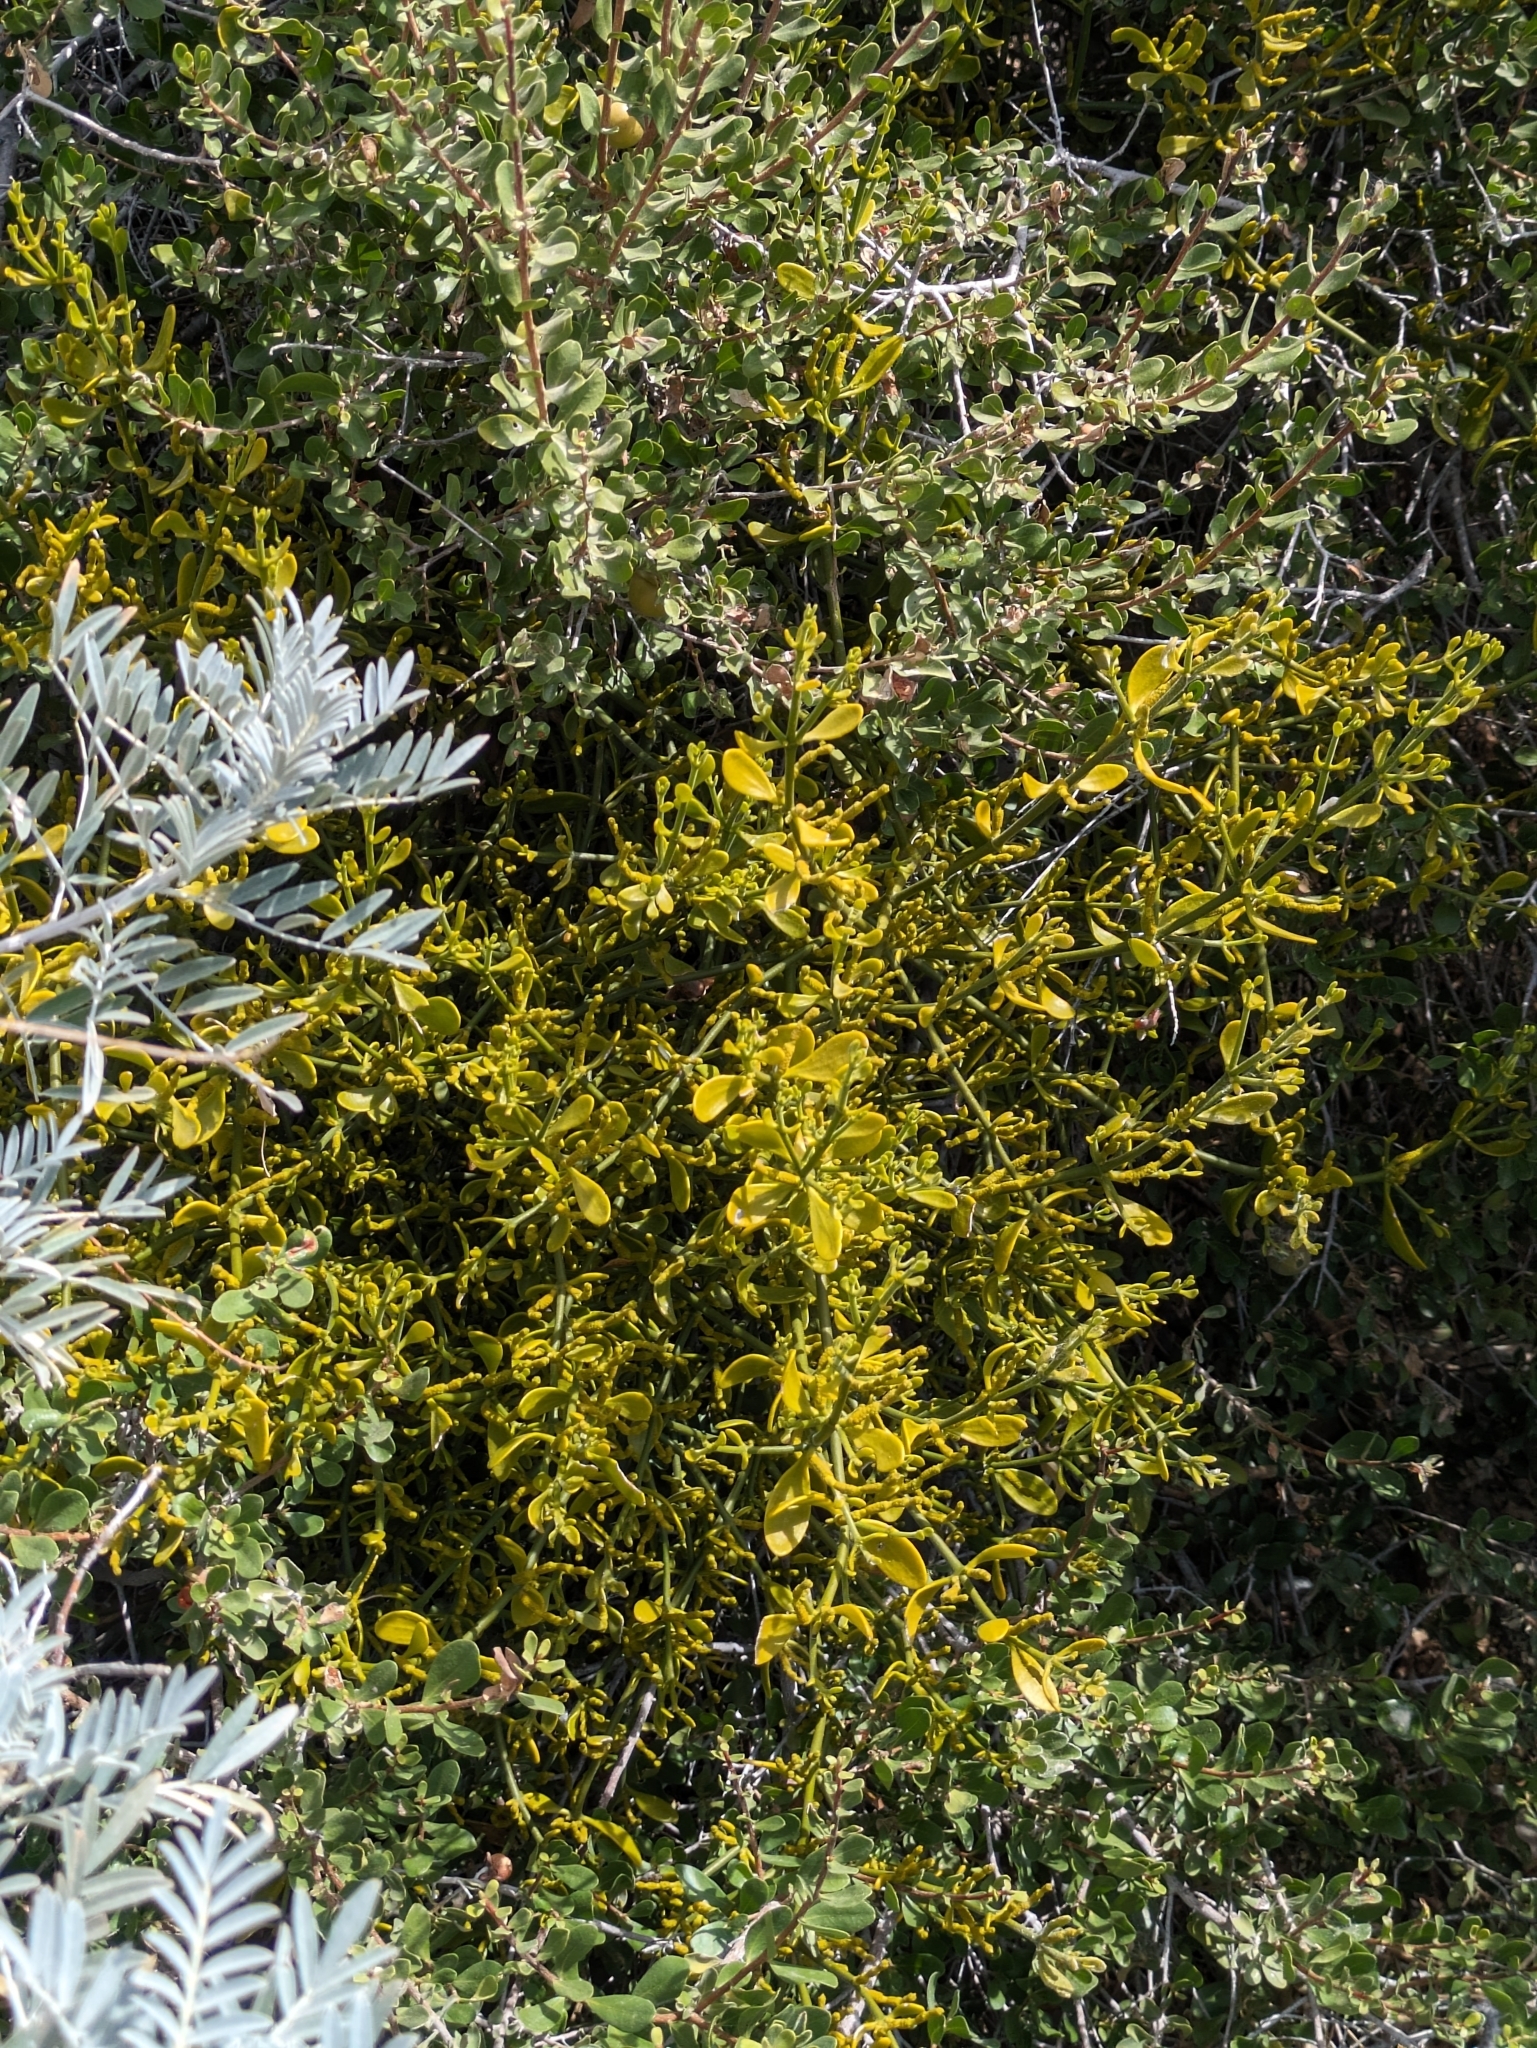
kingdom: Plantae
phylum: Tracheophyta
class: Magnoliopsida
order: Santalales
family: Viscaceae
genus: Phoradendron
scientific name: Phoradendron brachystachyum
